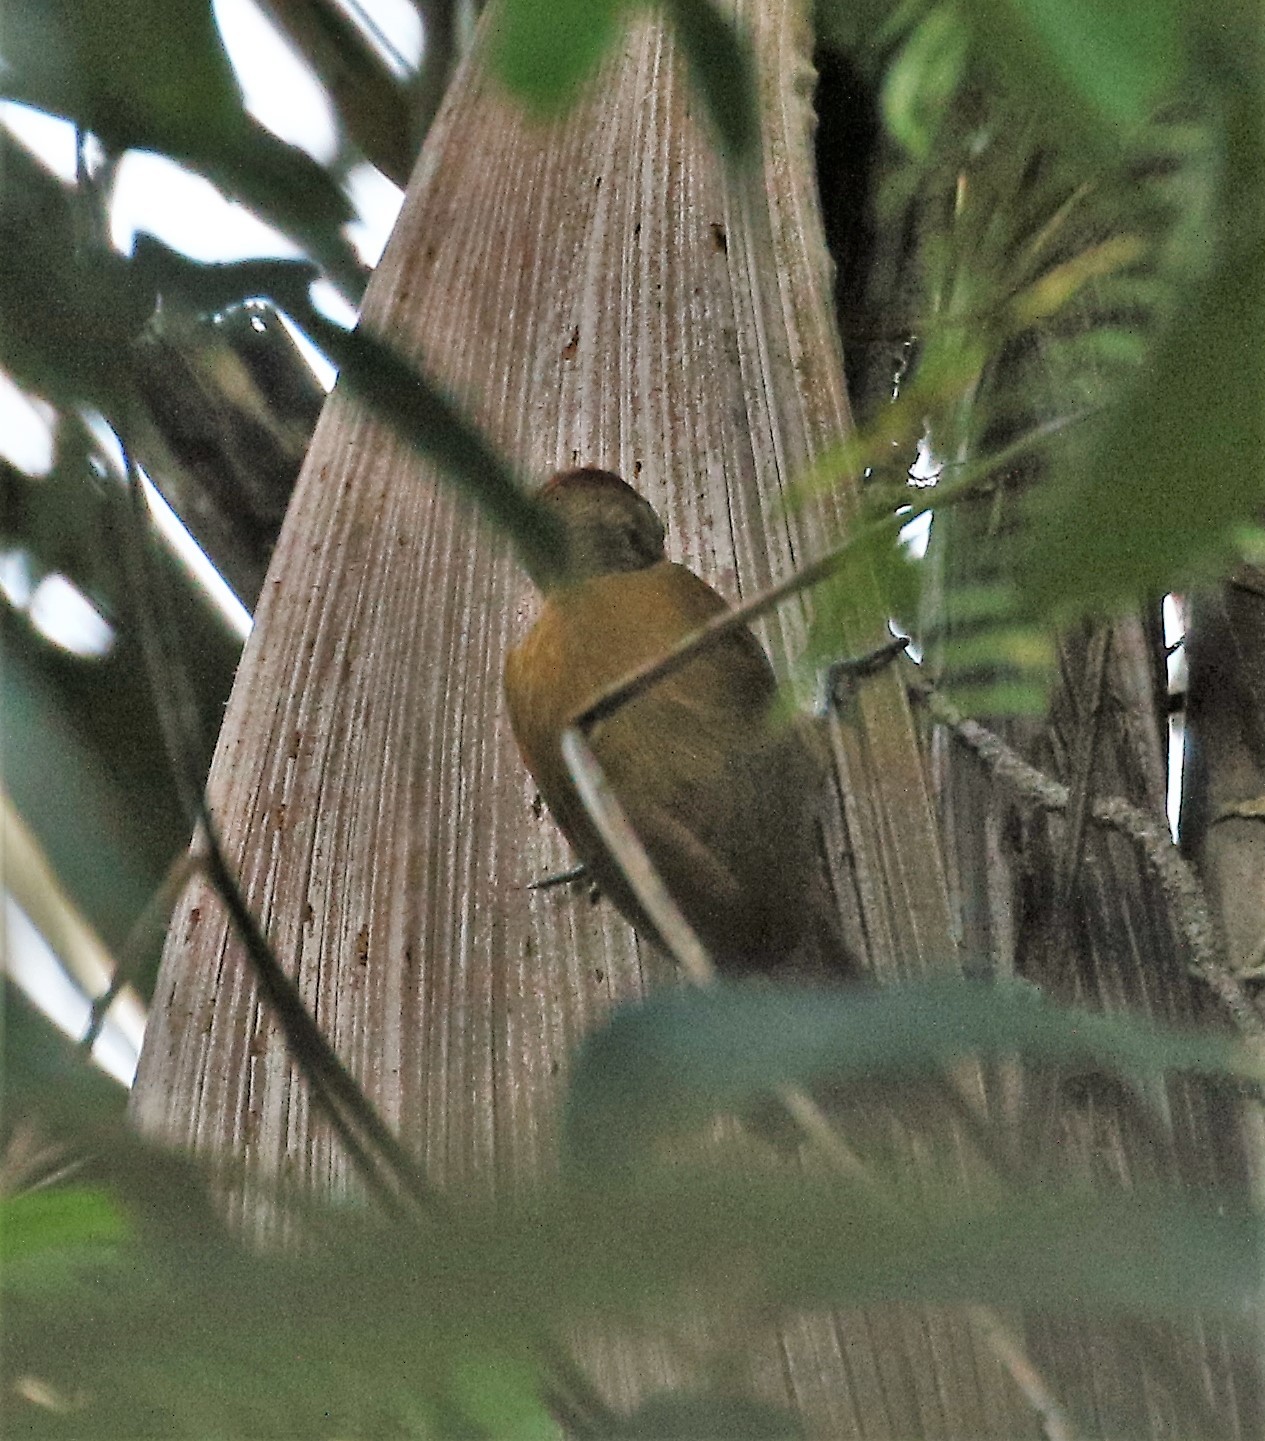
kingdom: Animalia
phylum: Chordata
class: Aves
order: Passeriformes
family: Furnariidae
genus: Sittasomus
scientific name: Sittasomus griseicapillus
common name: Olivaceous woodcreeper
